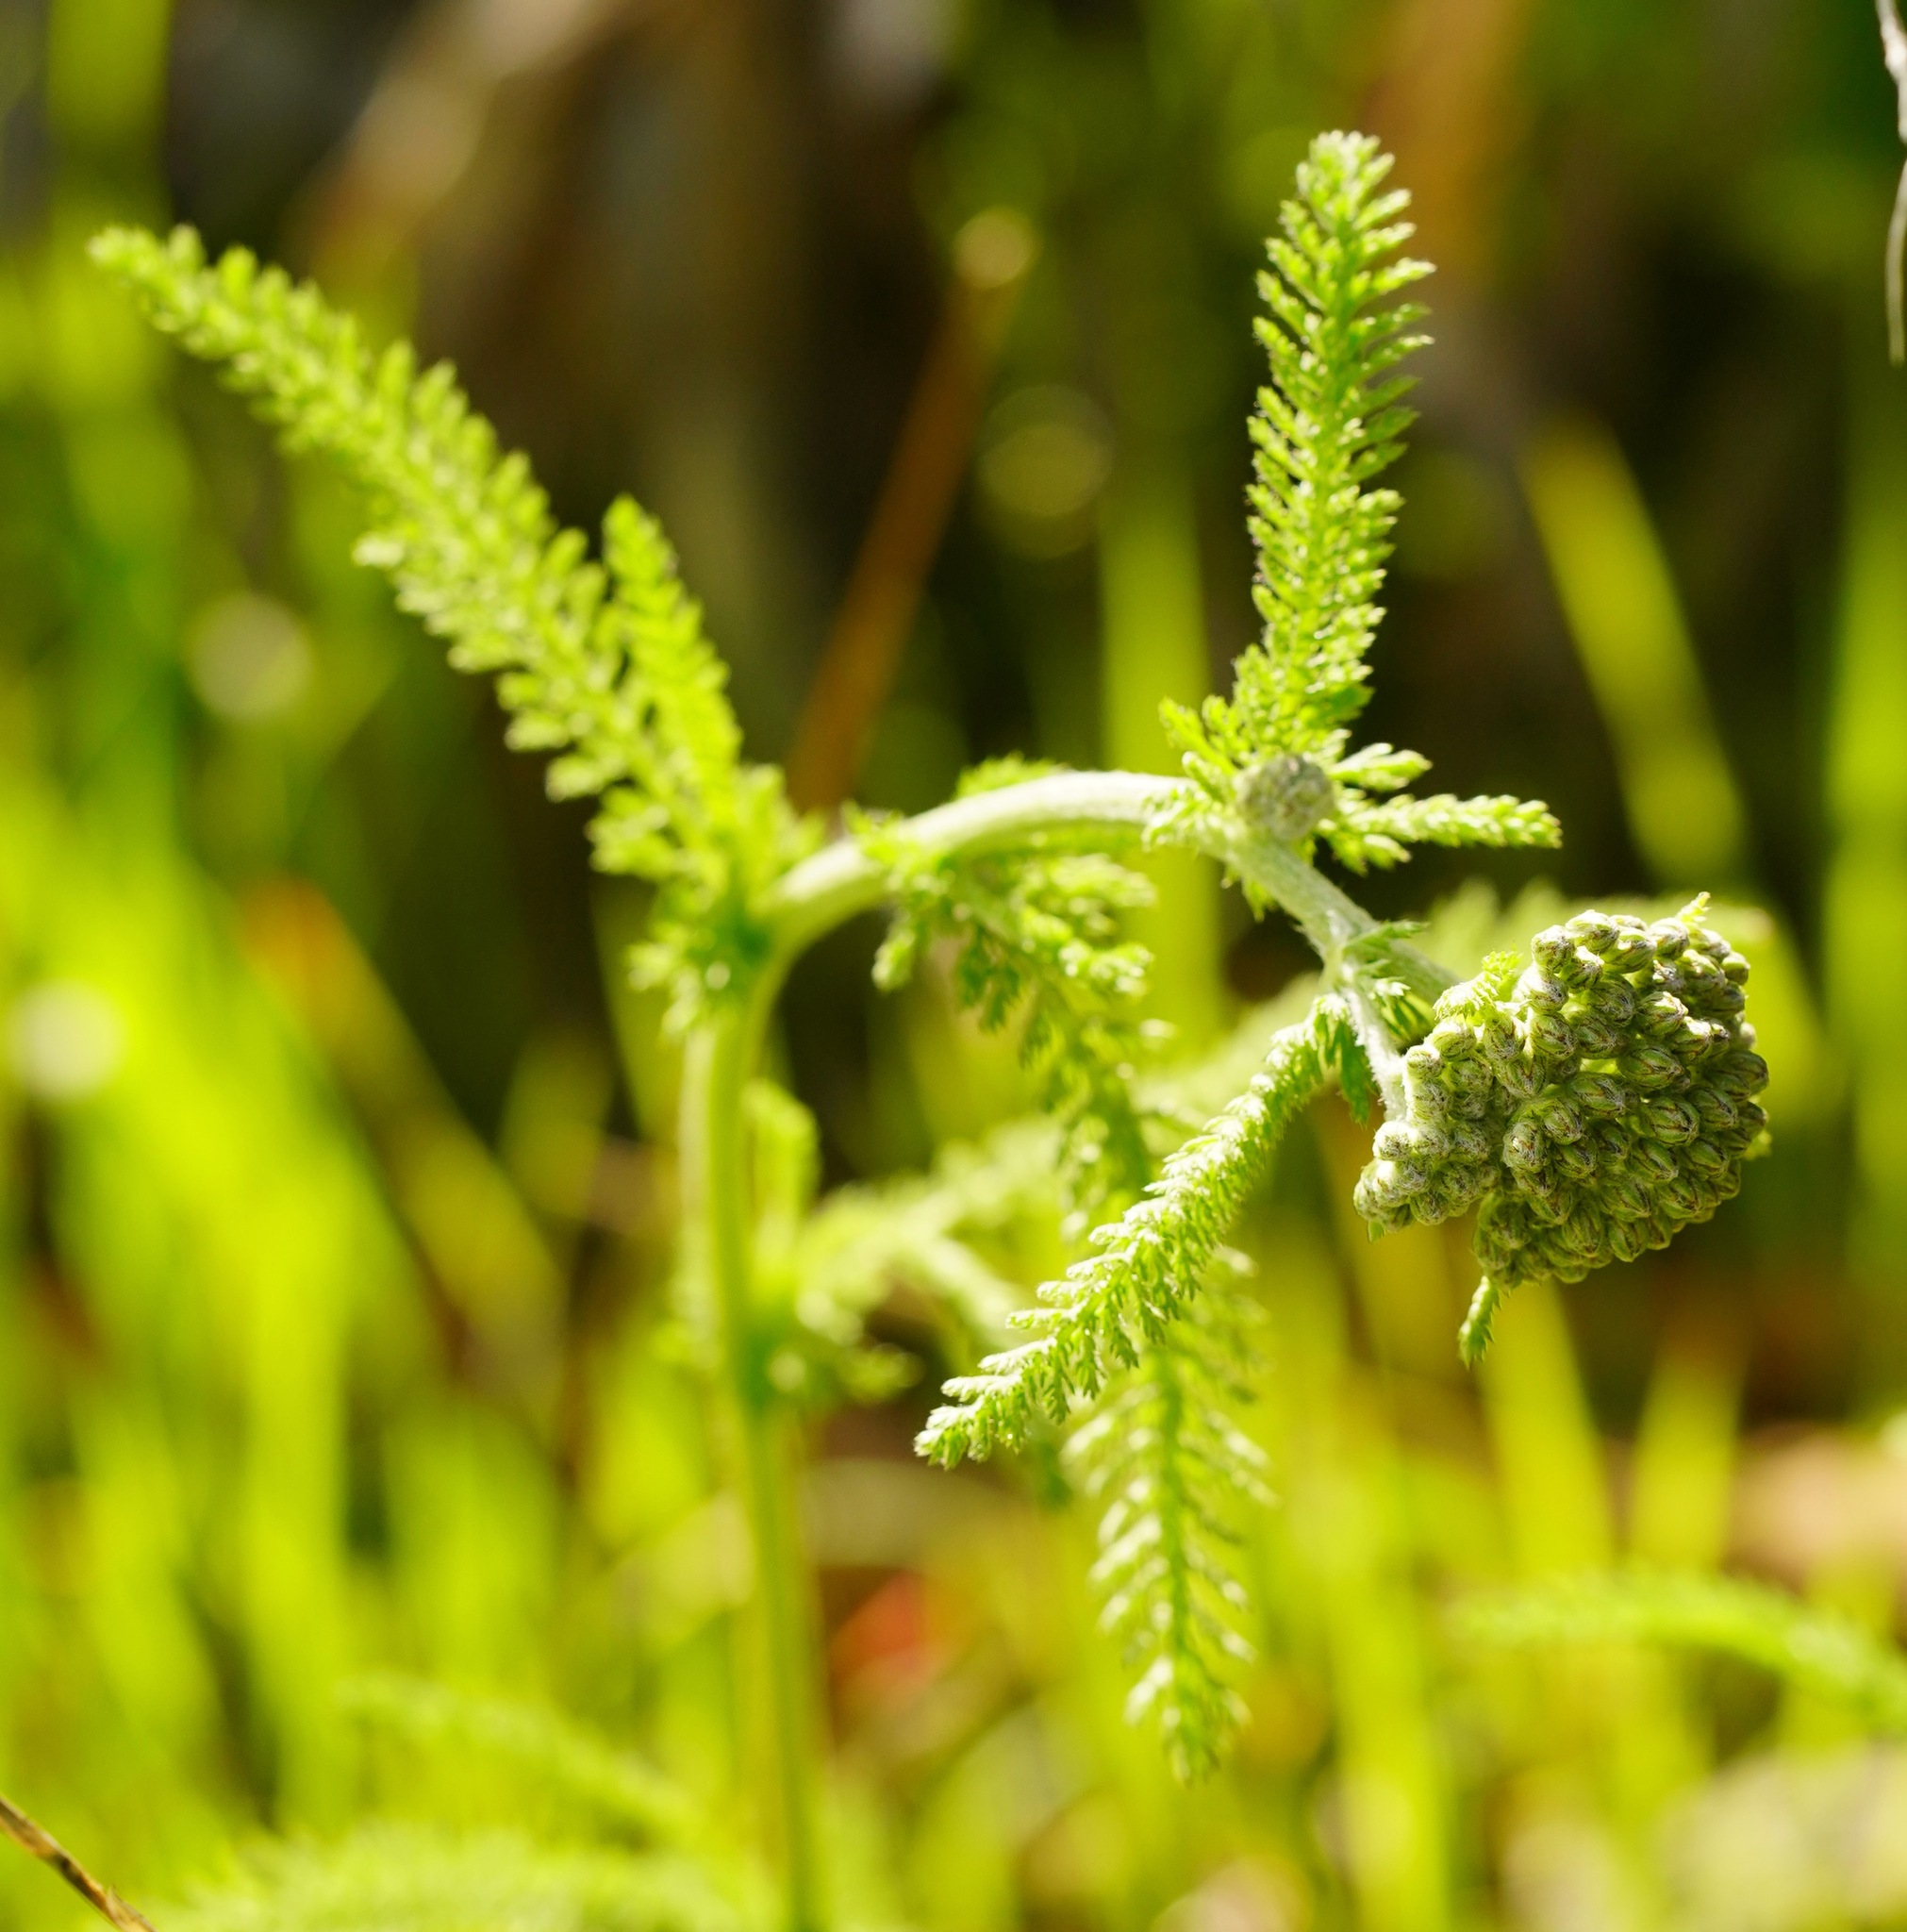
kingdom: Plantae
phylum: Tracheophyta
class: Magnoliopsida
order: Asterales
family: Asteraceae
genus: Achillea
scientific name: Achillea millefolium
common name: Yarrow
